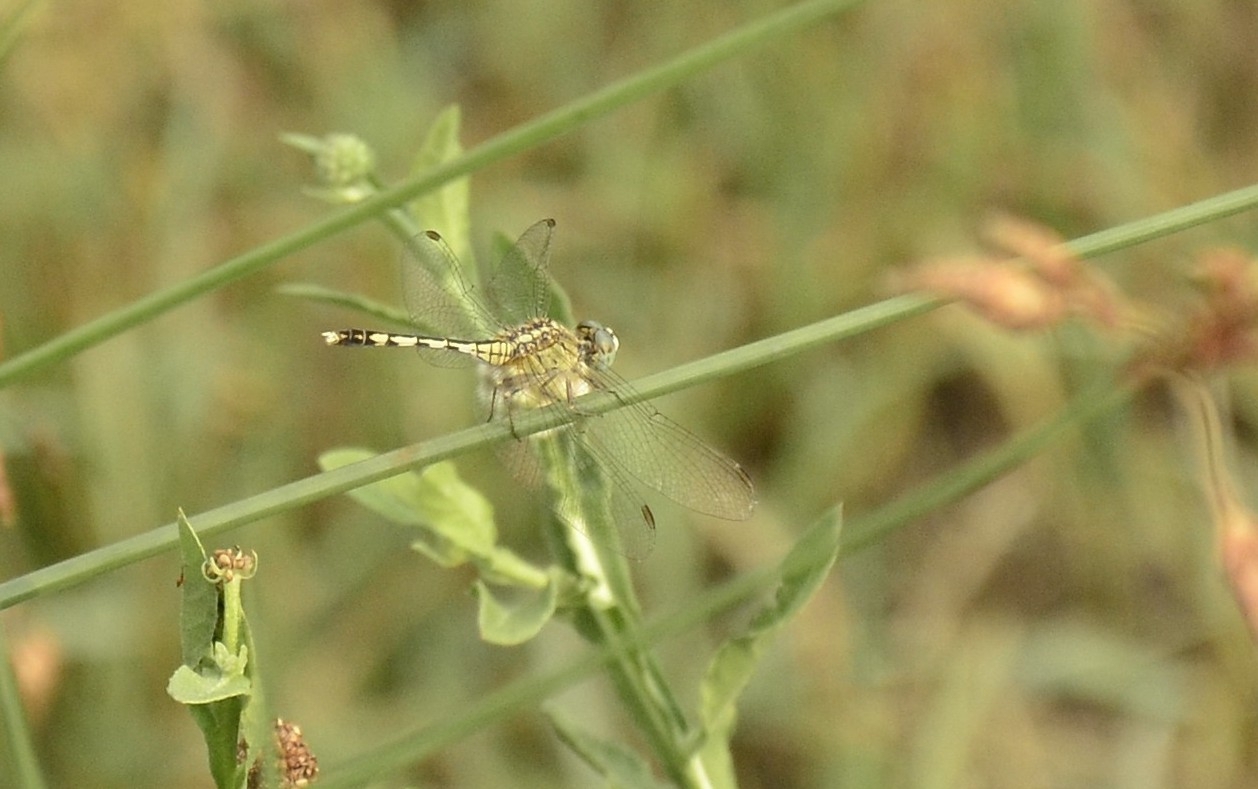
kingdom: Animalia
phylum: Arthropoda
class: Insecta
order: Odonata
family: Libellulidae
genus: Diplacodes
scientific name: Diplacodes trivialis
